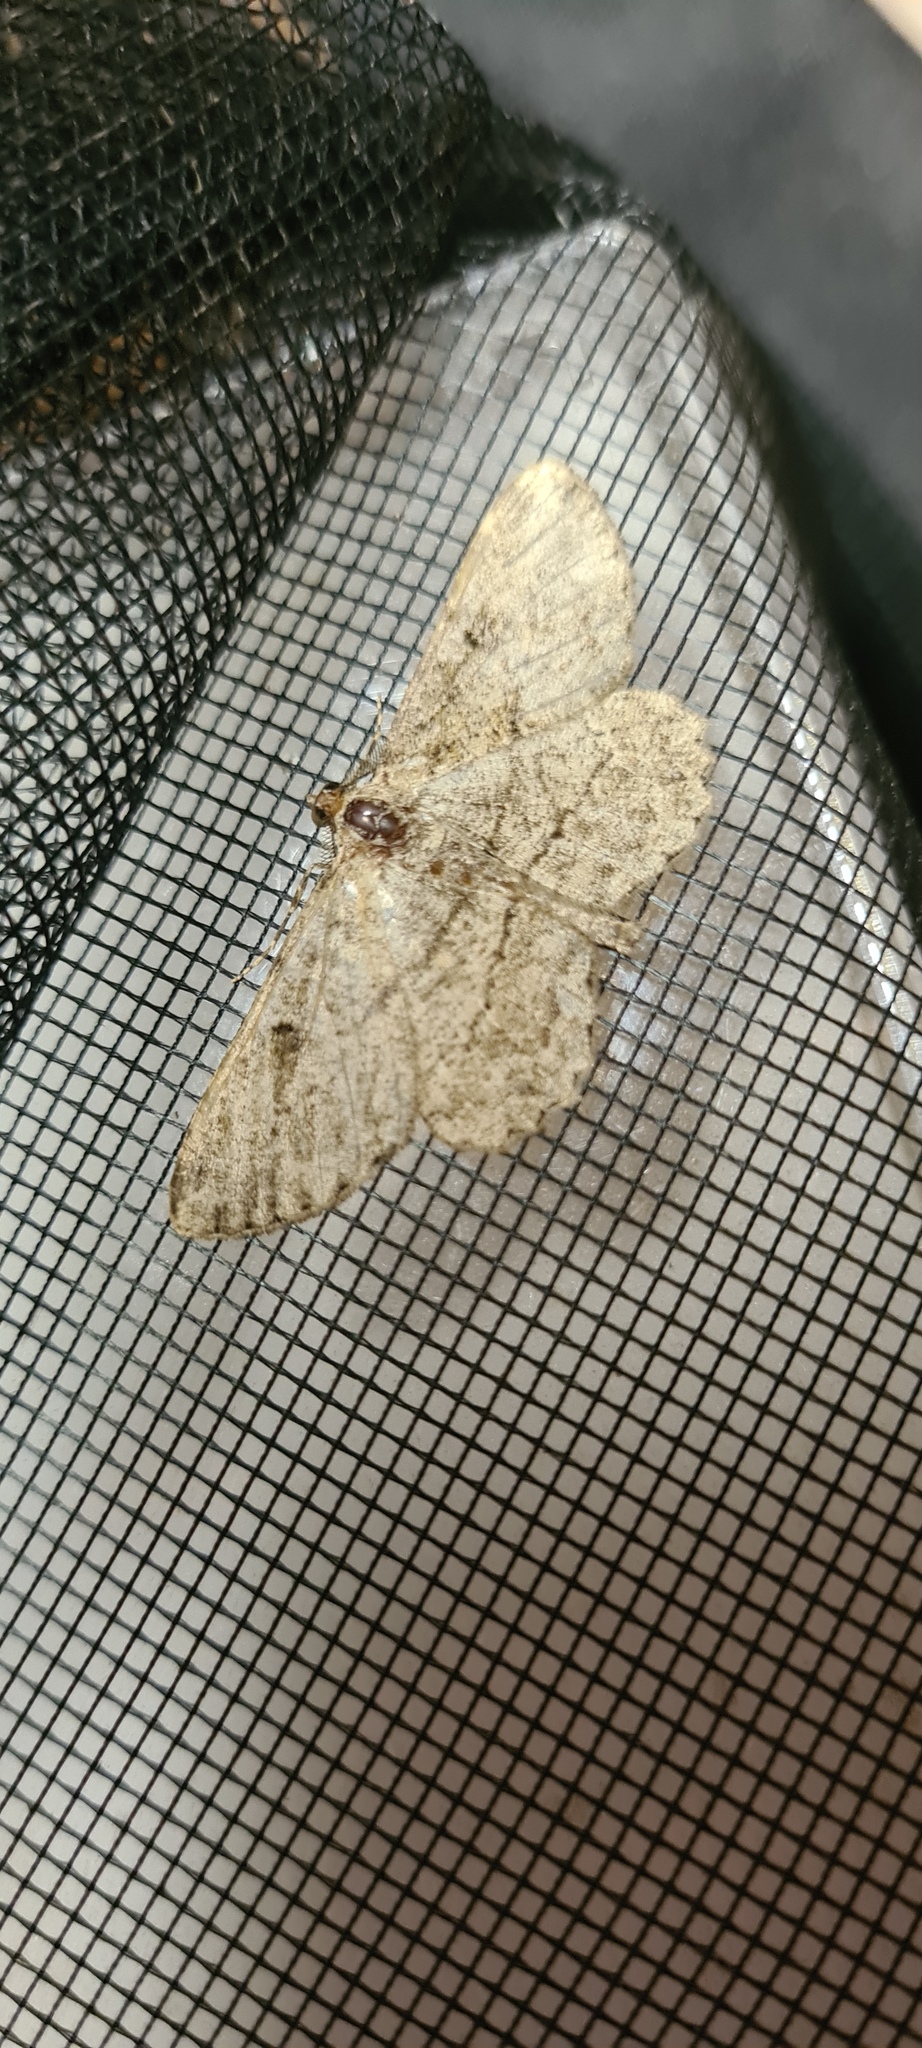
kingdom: Animalia
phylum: Arthropoda
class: Insecta
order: Lepidoptera
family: Geometridae
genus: Peribatodes
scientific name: Peribatodes rhomboidaria
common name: Willow beauty
